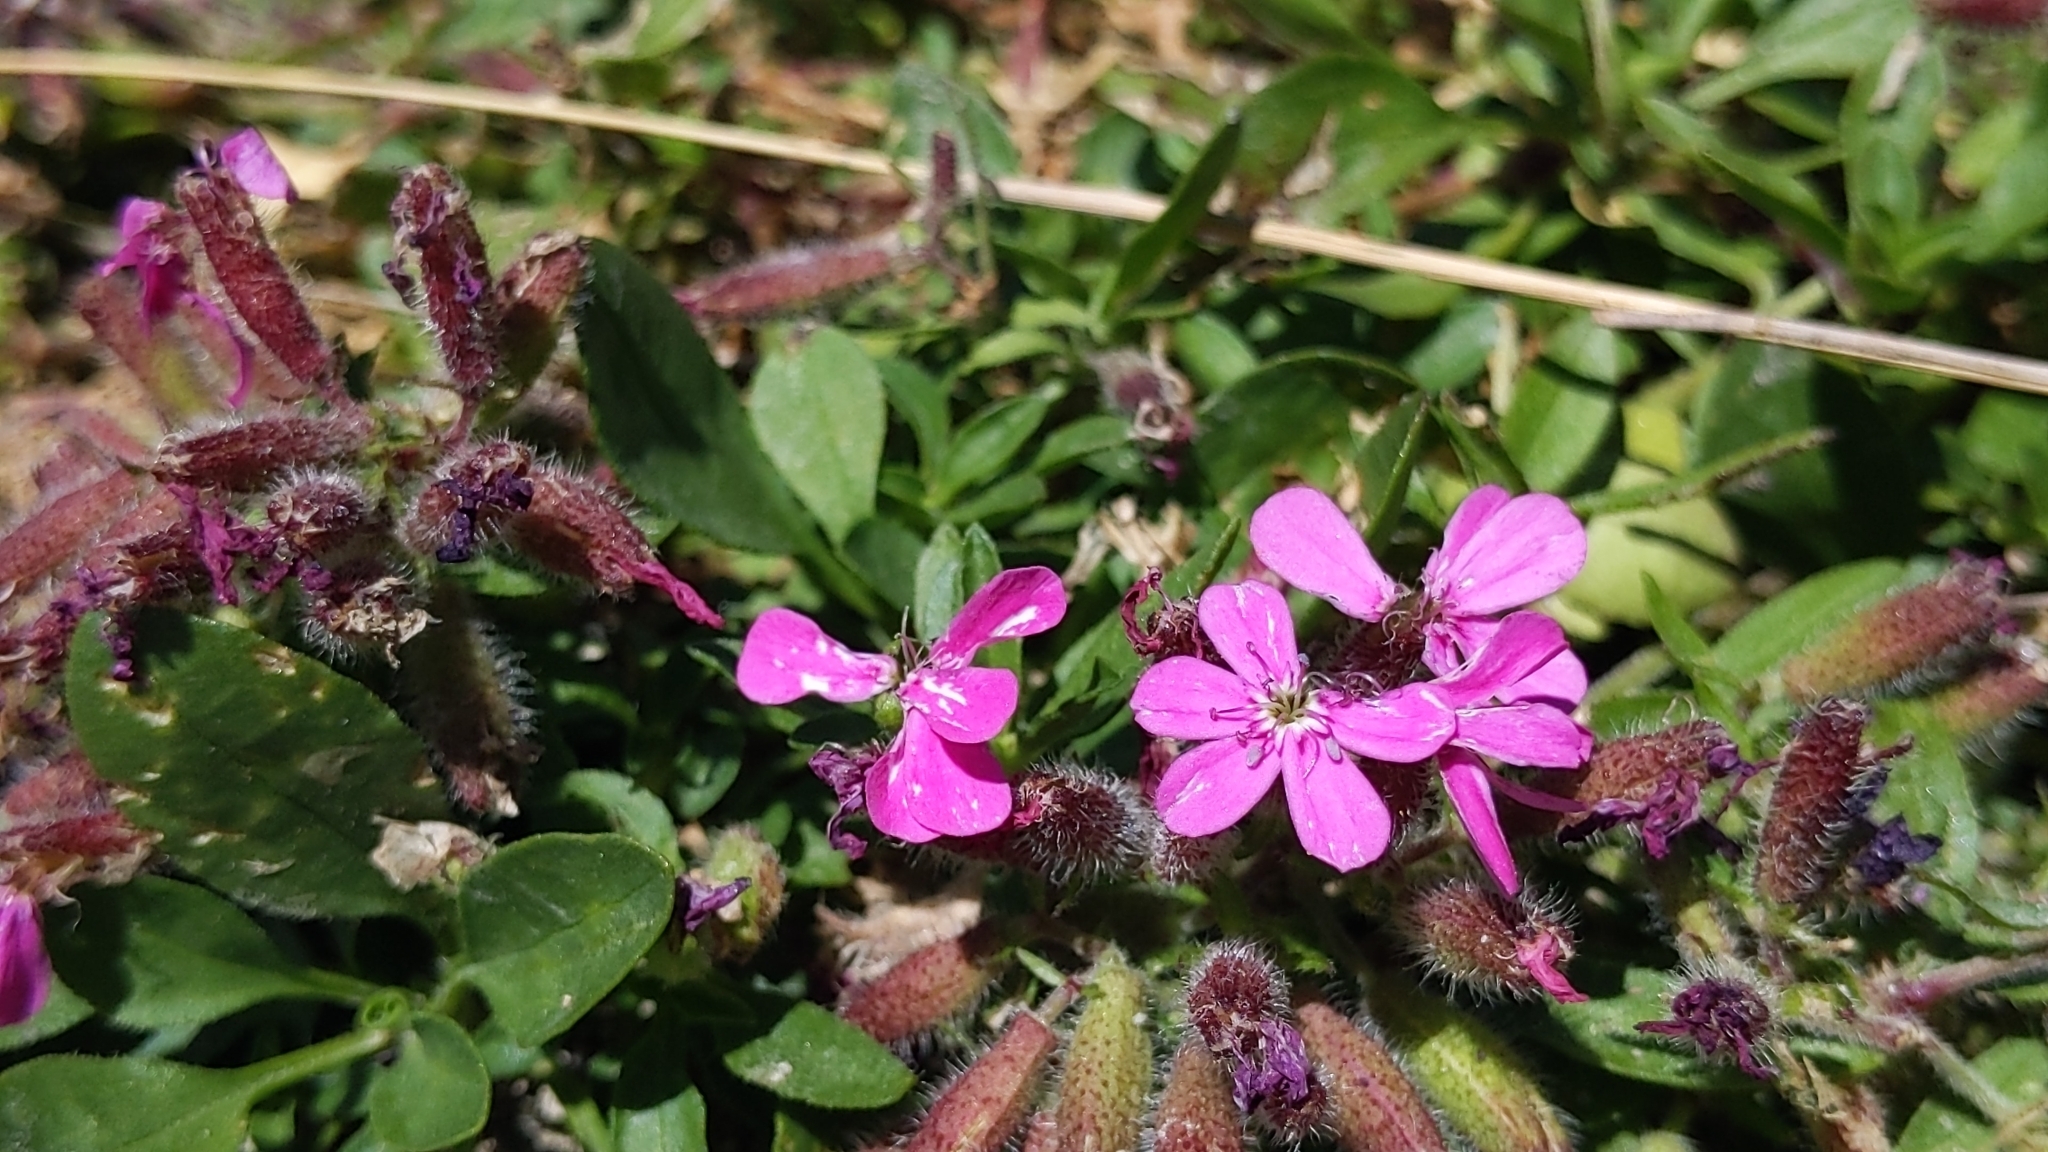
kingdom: Plantae
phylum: Tracheophyta
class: Magnoliopsida
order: Caryophyllales
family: Caryophyllaceae
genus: Saponaria
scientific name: Saponaria ocymoides
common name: Rock soapwort
